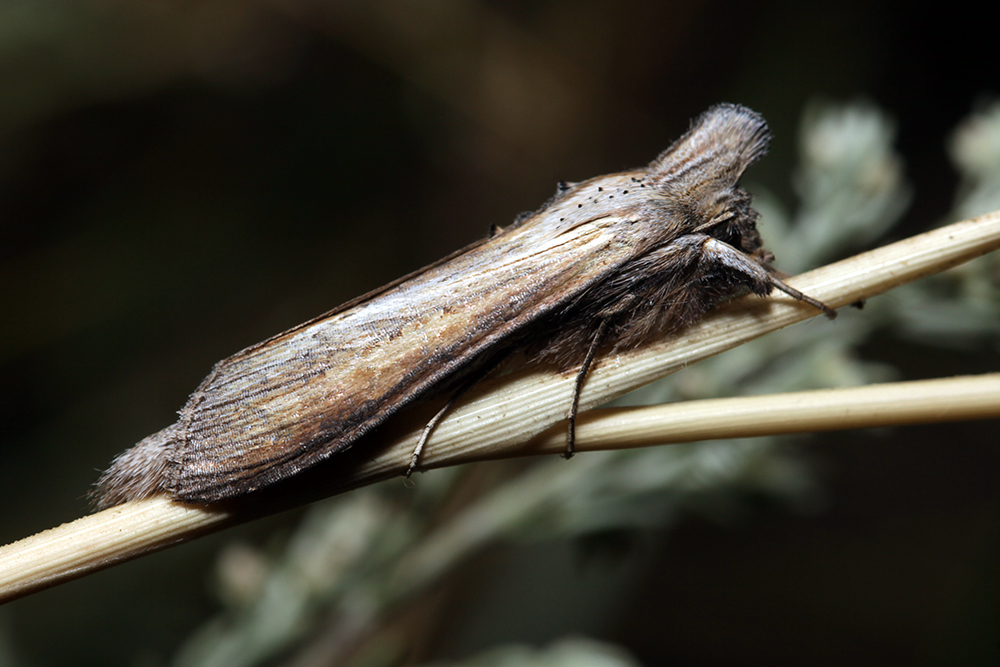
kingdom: Animalia
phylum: Arthropoda
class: Insecta
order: Lepidoptera
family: Noctuidae
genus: Cucullia
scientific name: Cucullia virgaureae
